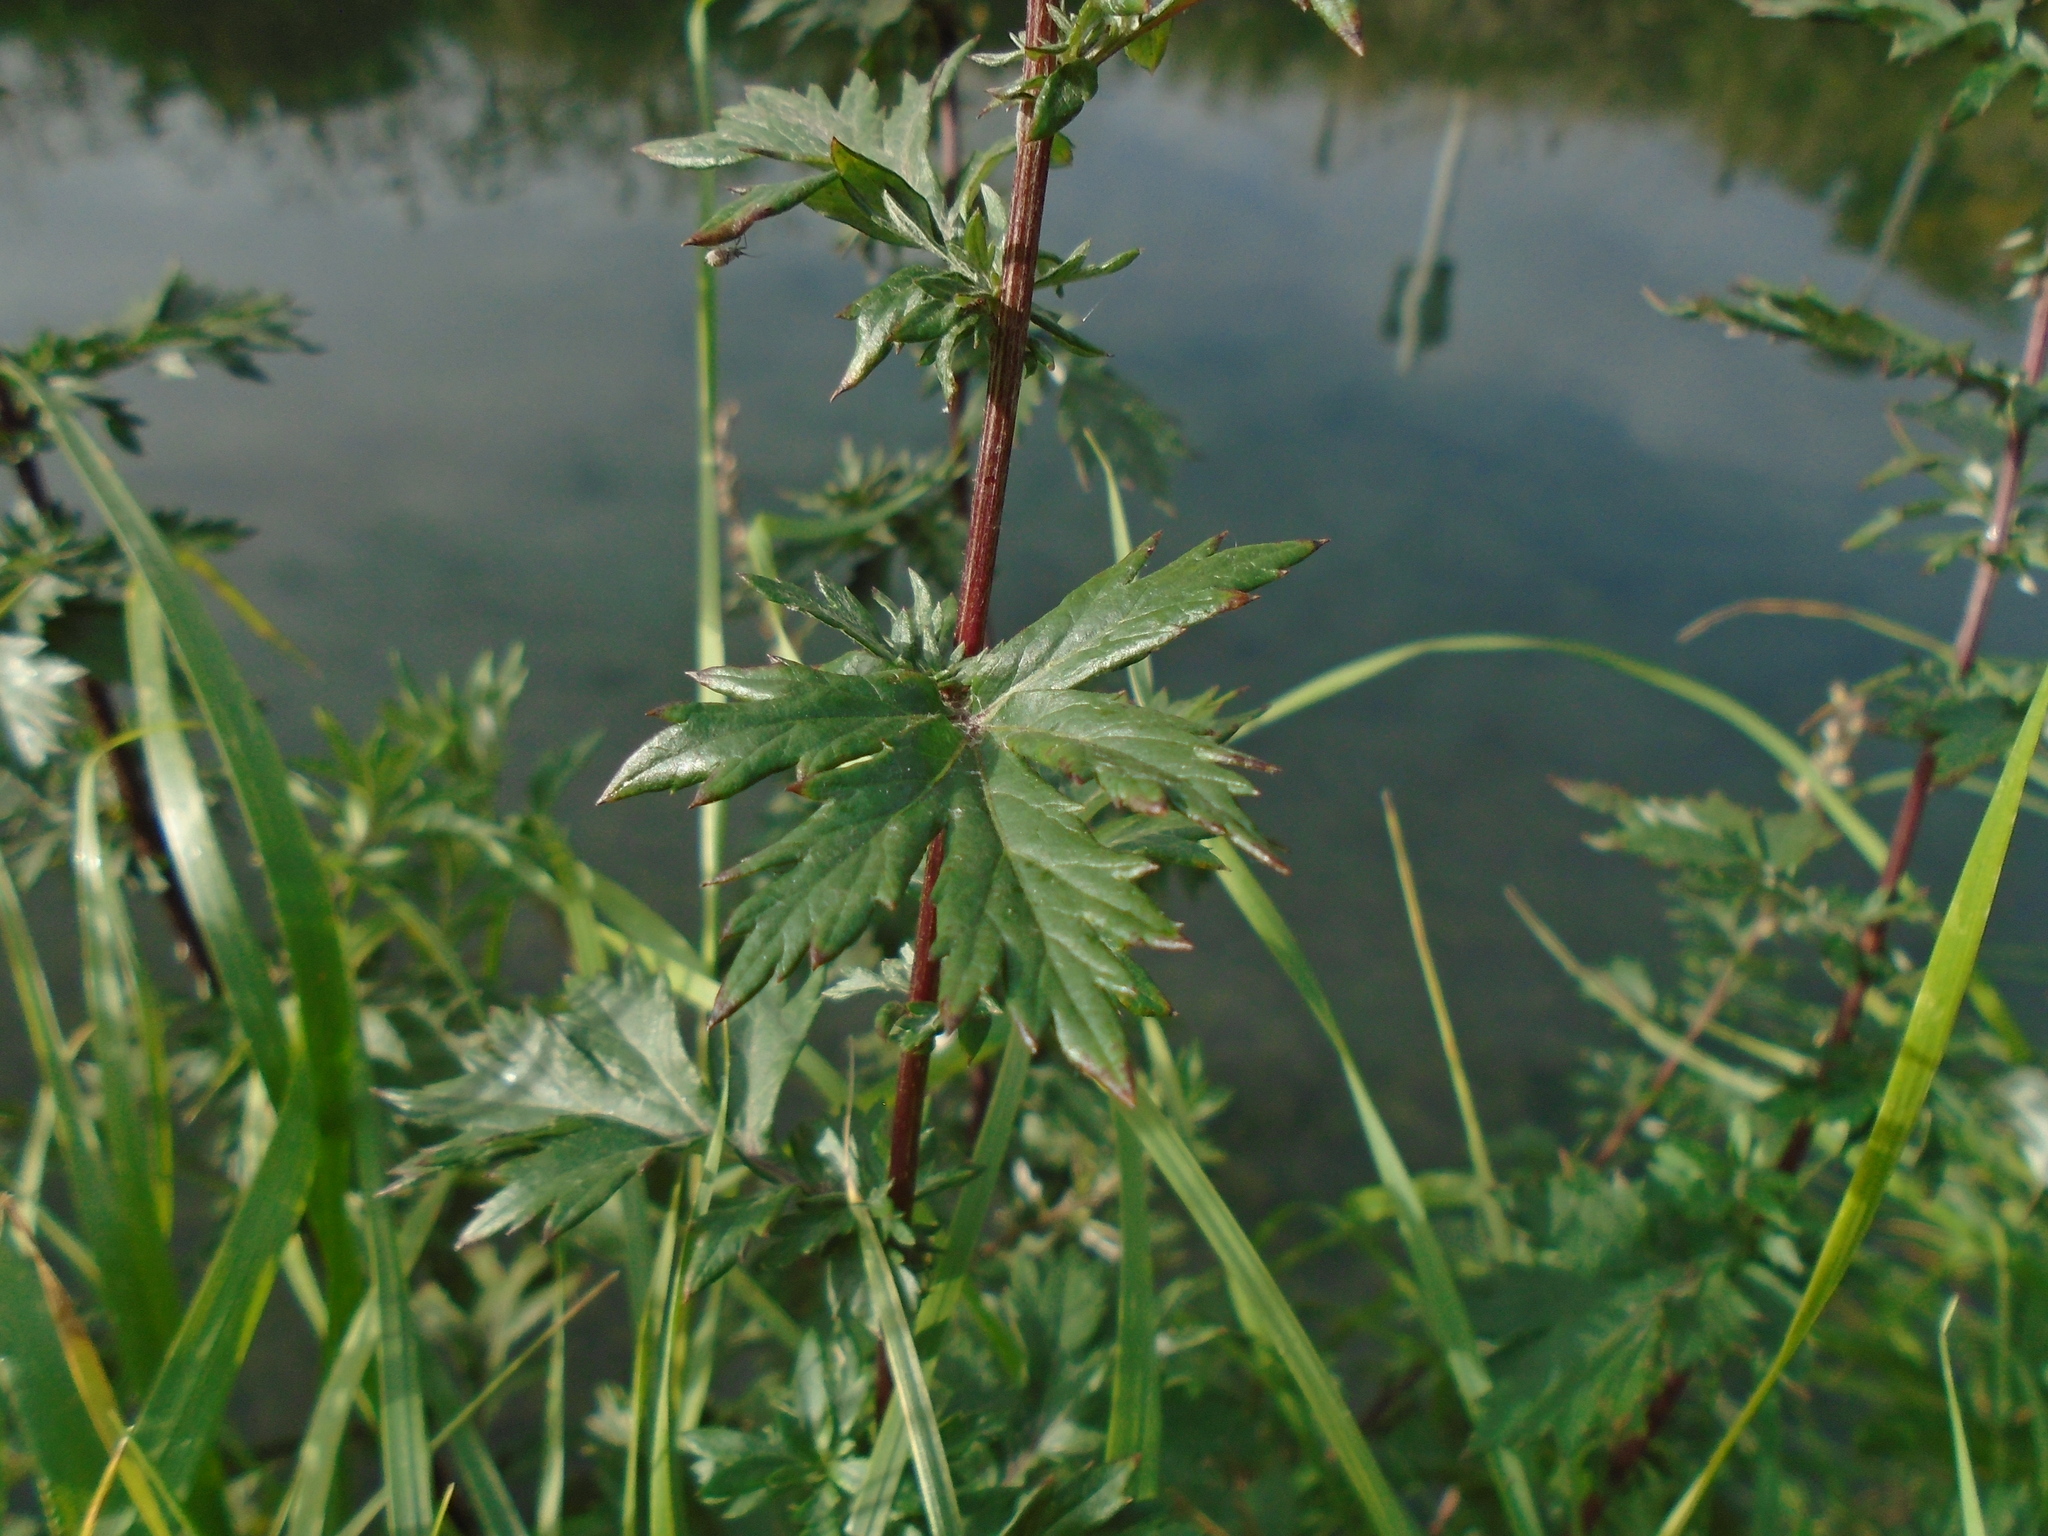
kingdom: Plantae
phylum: Tracheophyta
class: Magnoliopsida
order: Asterales
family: Asteraceae
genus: Artemisia
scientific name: Artemisia vulgaris
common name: Mugwort
